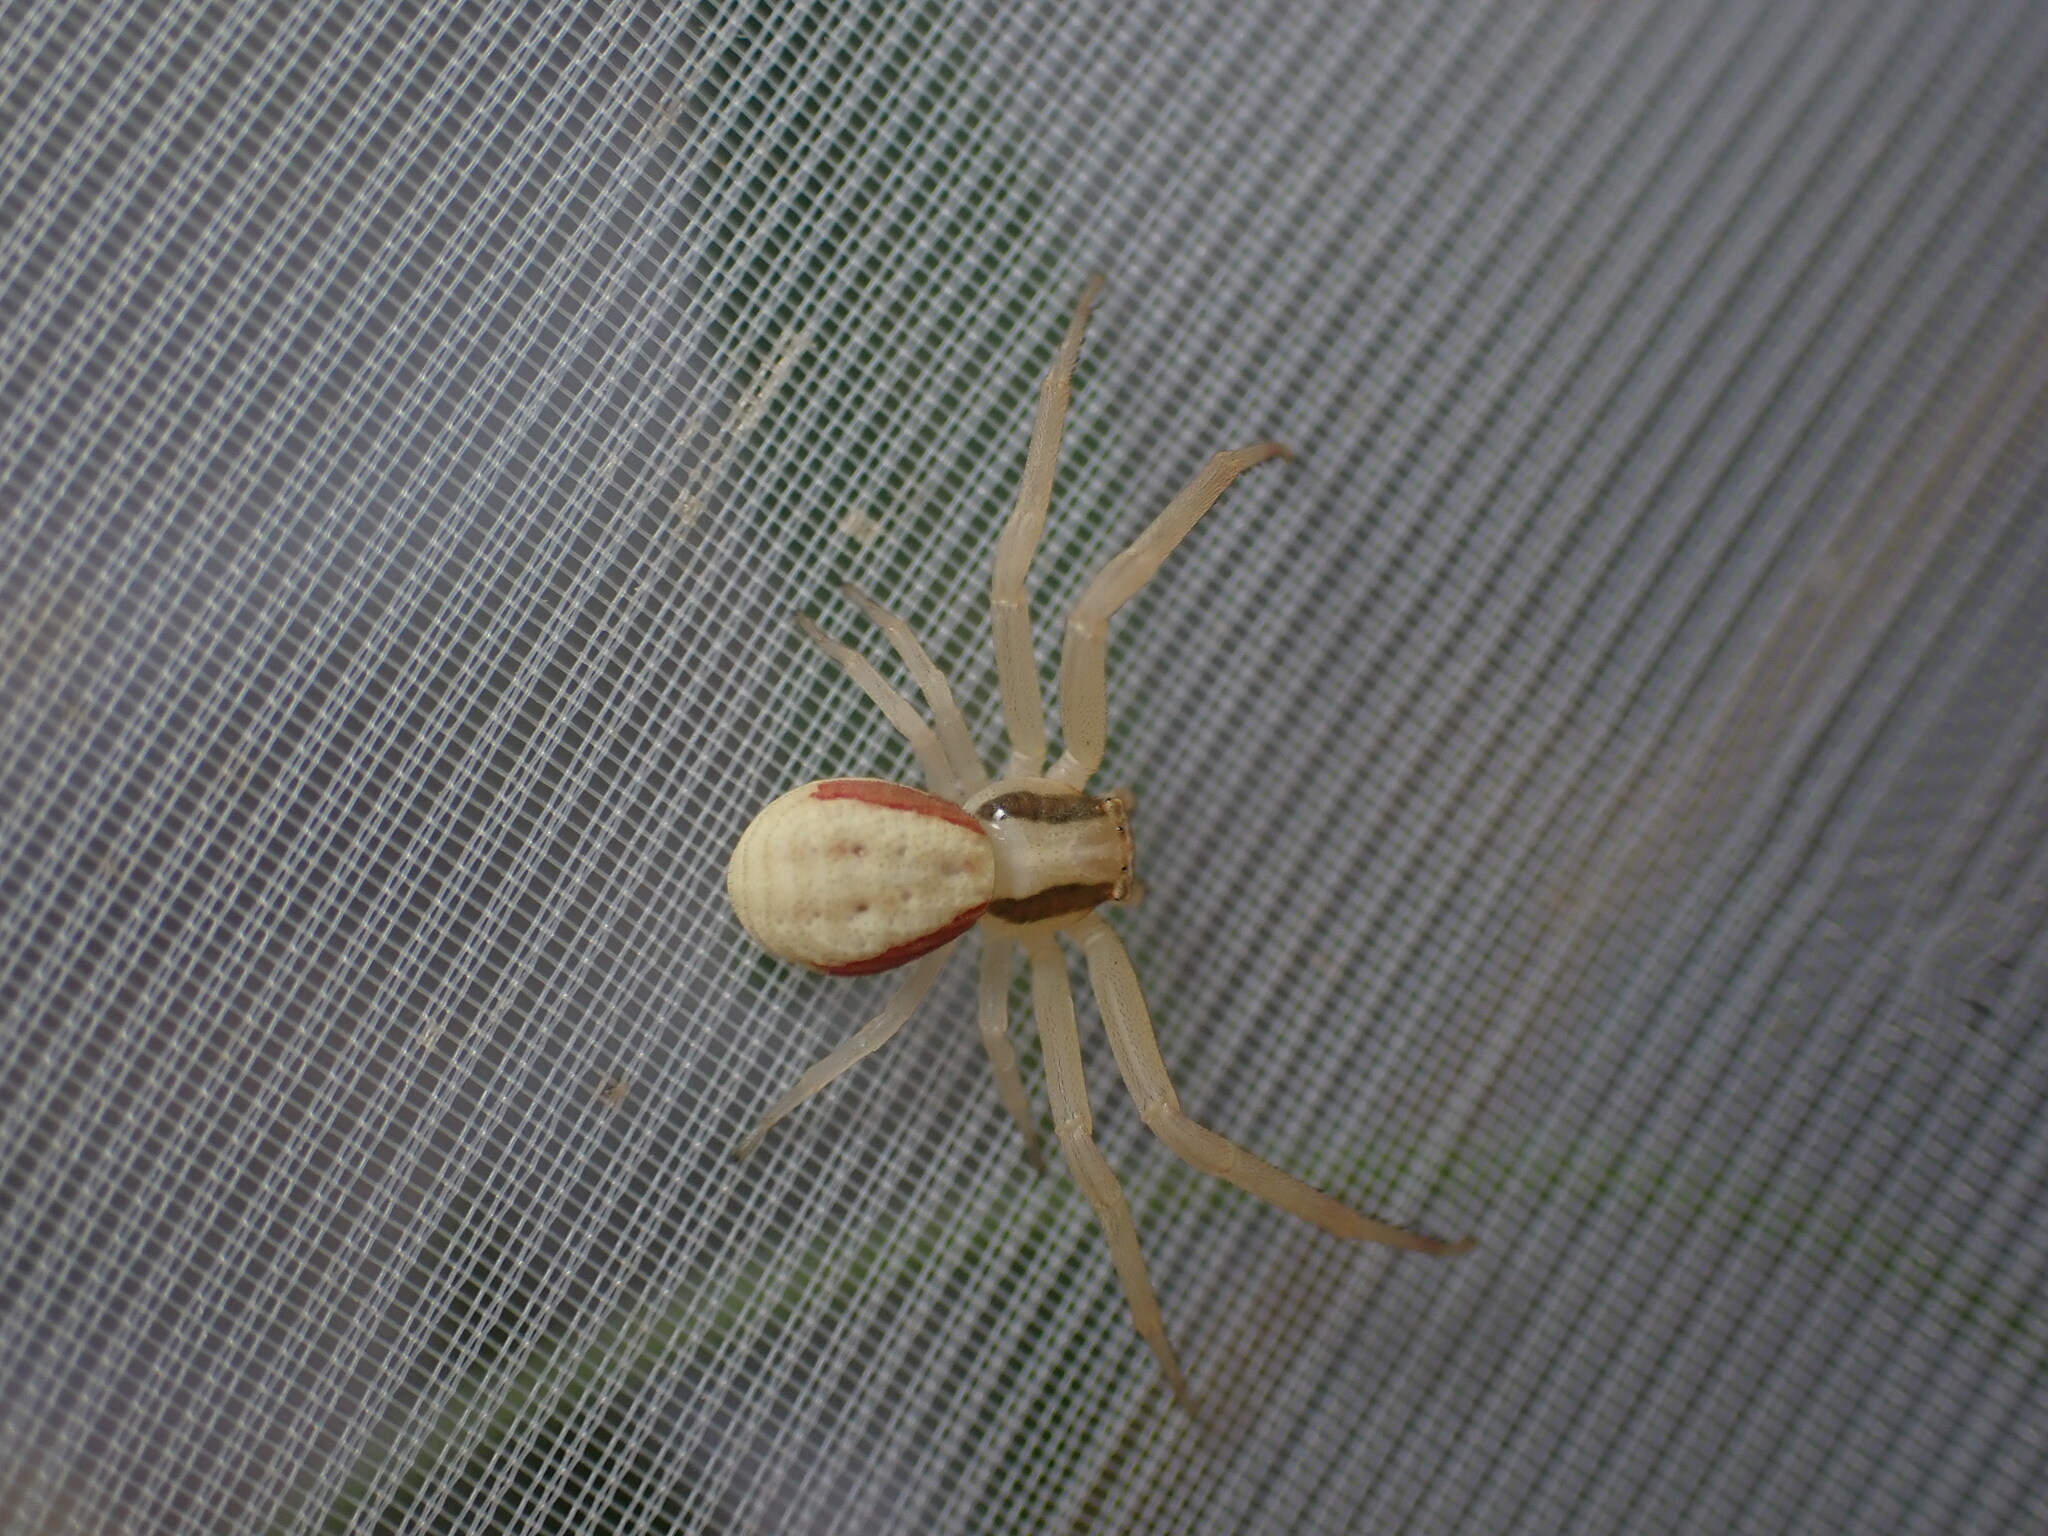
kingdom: Animalia
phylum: Arthropoda
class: Arachnida
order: Araneae
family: Thomisidae
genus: Runcinia
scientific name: Runcinia grammica
